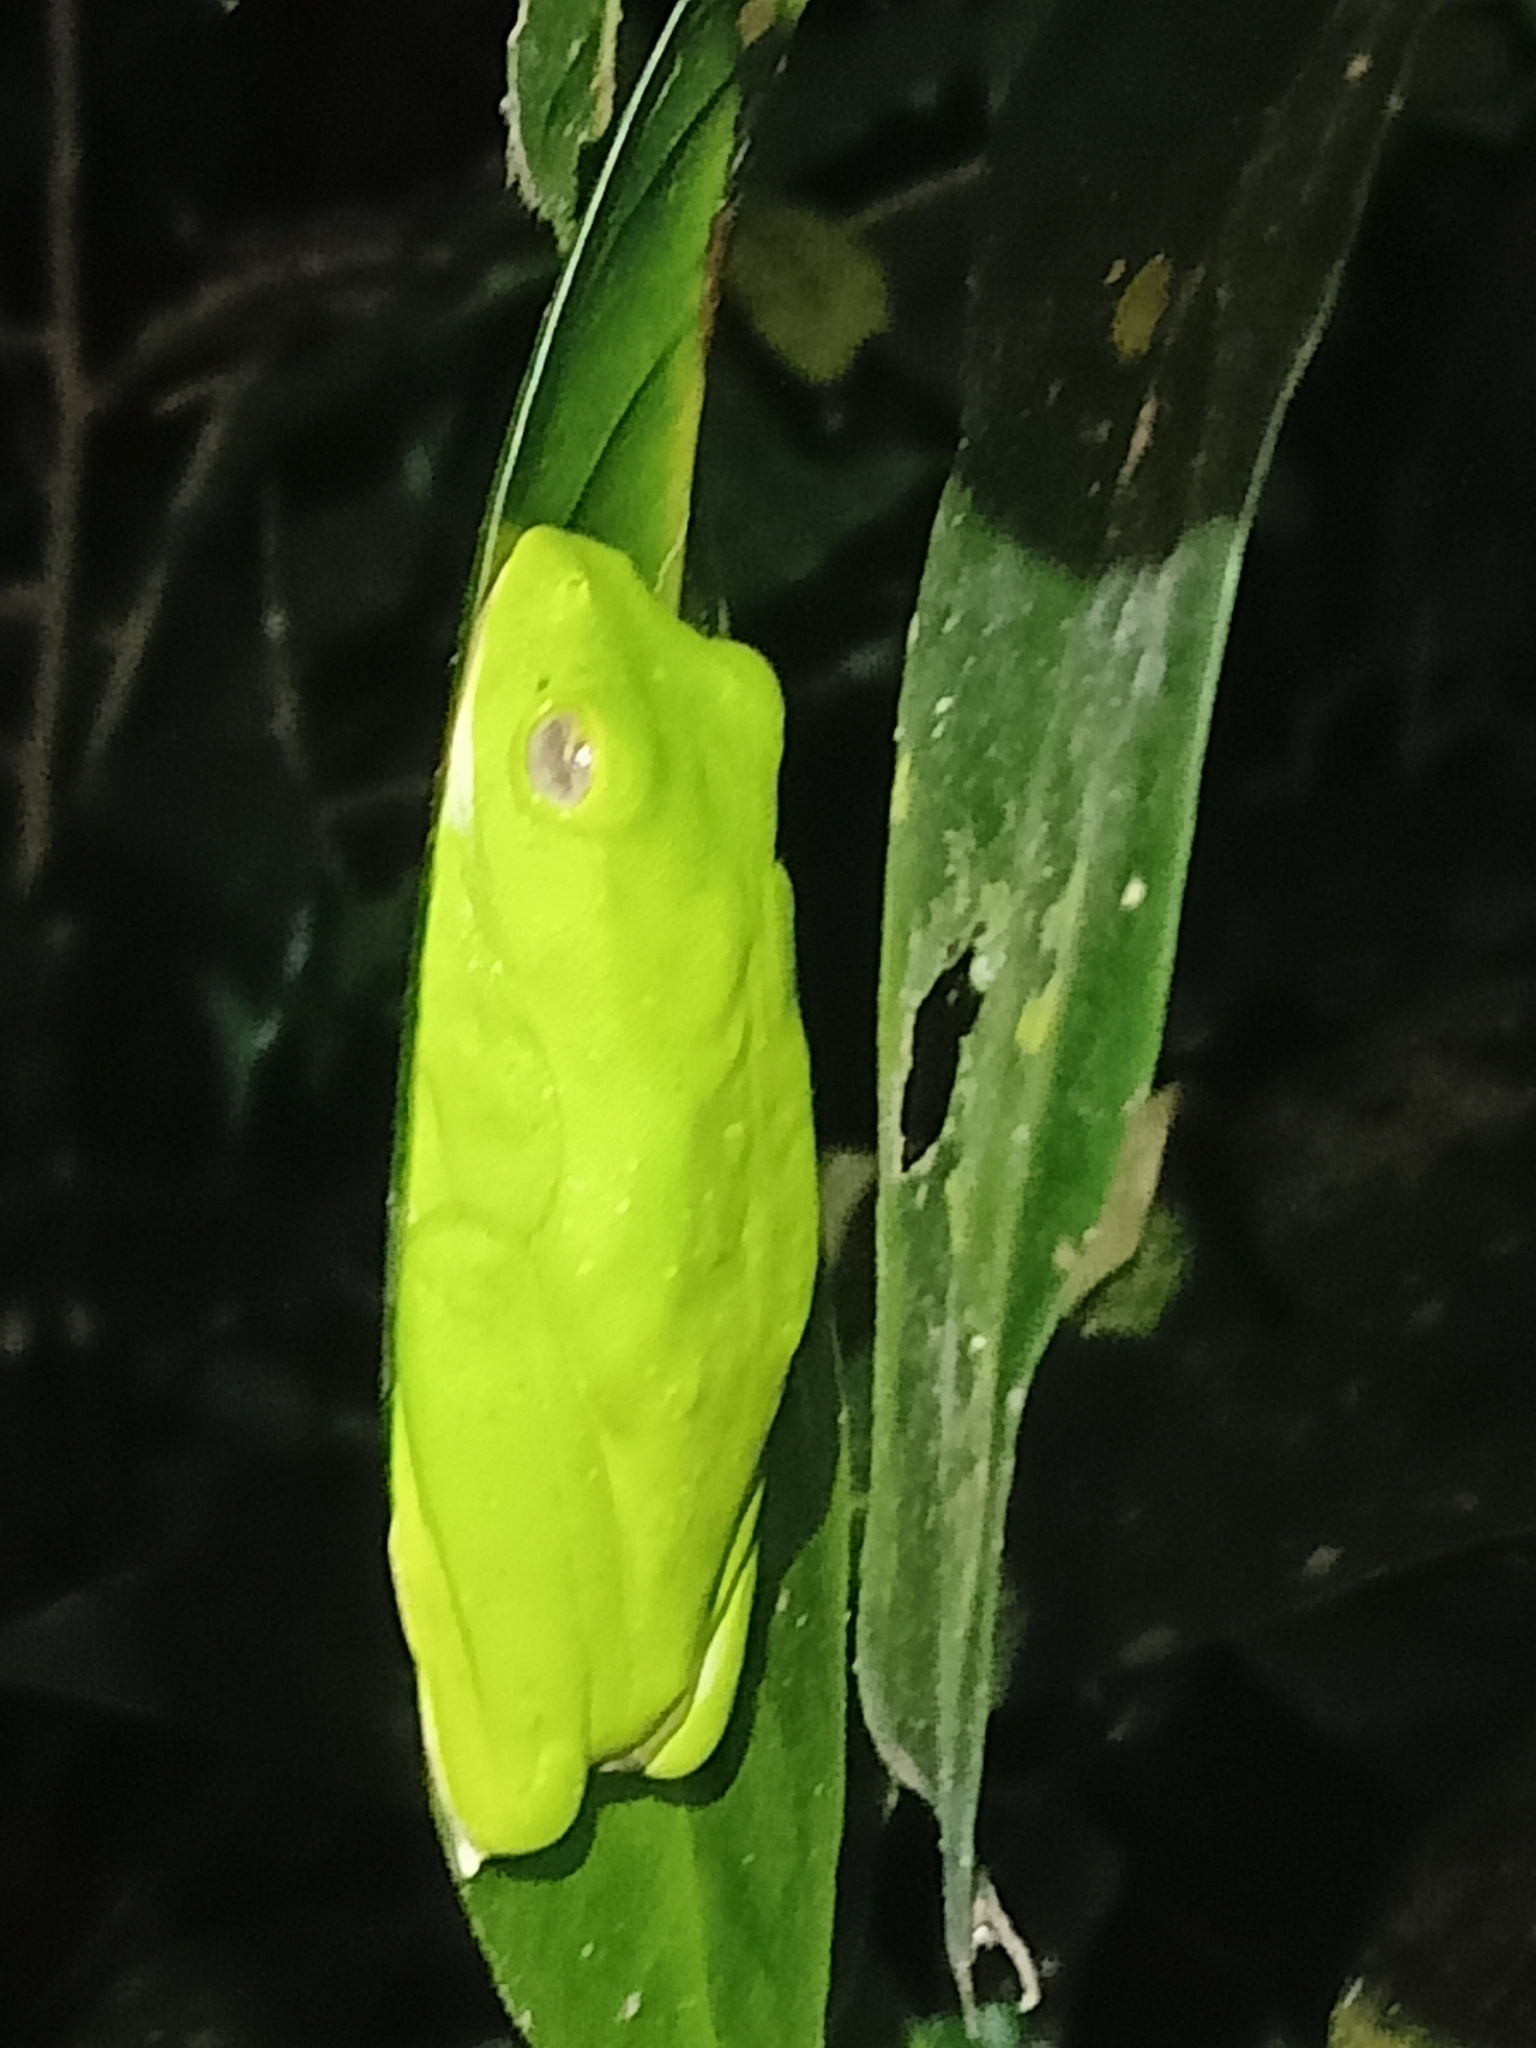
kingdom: Animalia
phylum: Chordata
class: Amphibia
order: Anura
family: Rhacophoridae
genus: Rhacophorus
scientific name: Rhacophorus malabaricus
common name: Malabar gliding frog
